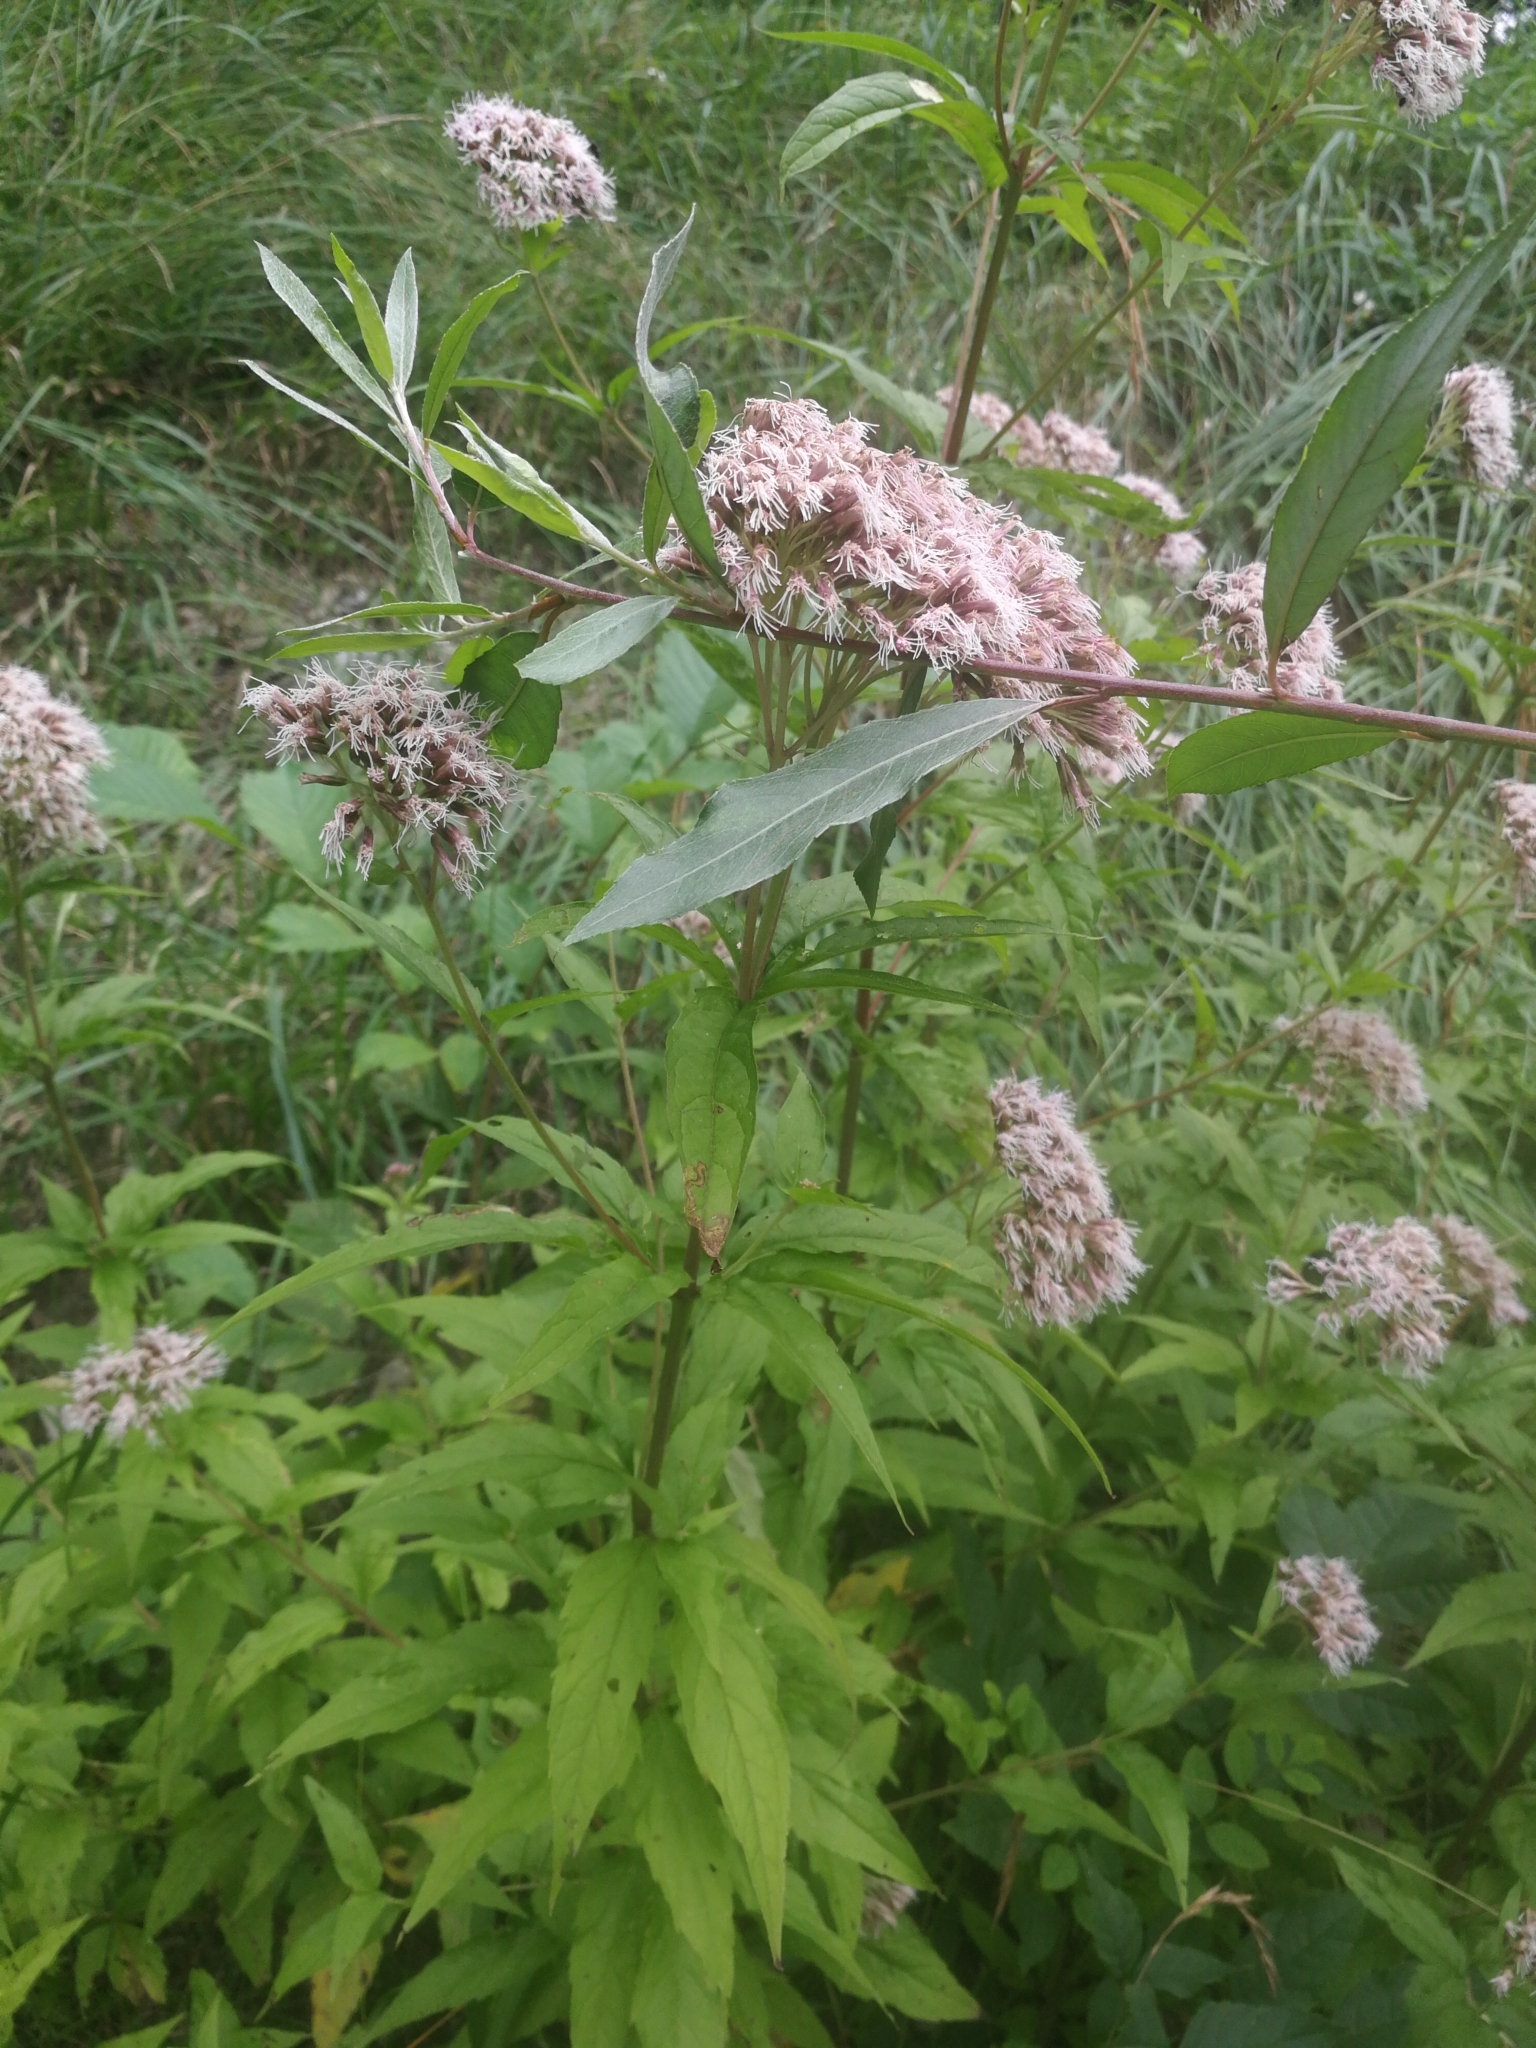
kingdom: Plantae
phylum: Tracheophyta
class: Magnoliopsida
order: Asterales
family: Asteraceae
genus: Eupatorium
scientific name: Eupatorium cannabinum
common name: Hemp-agrimony
